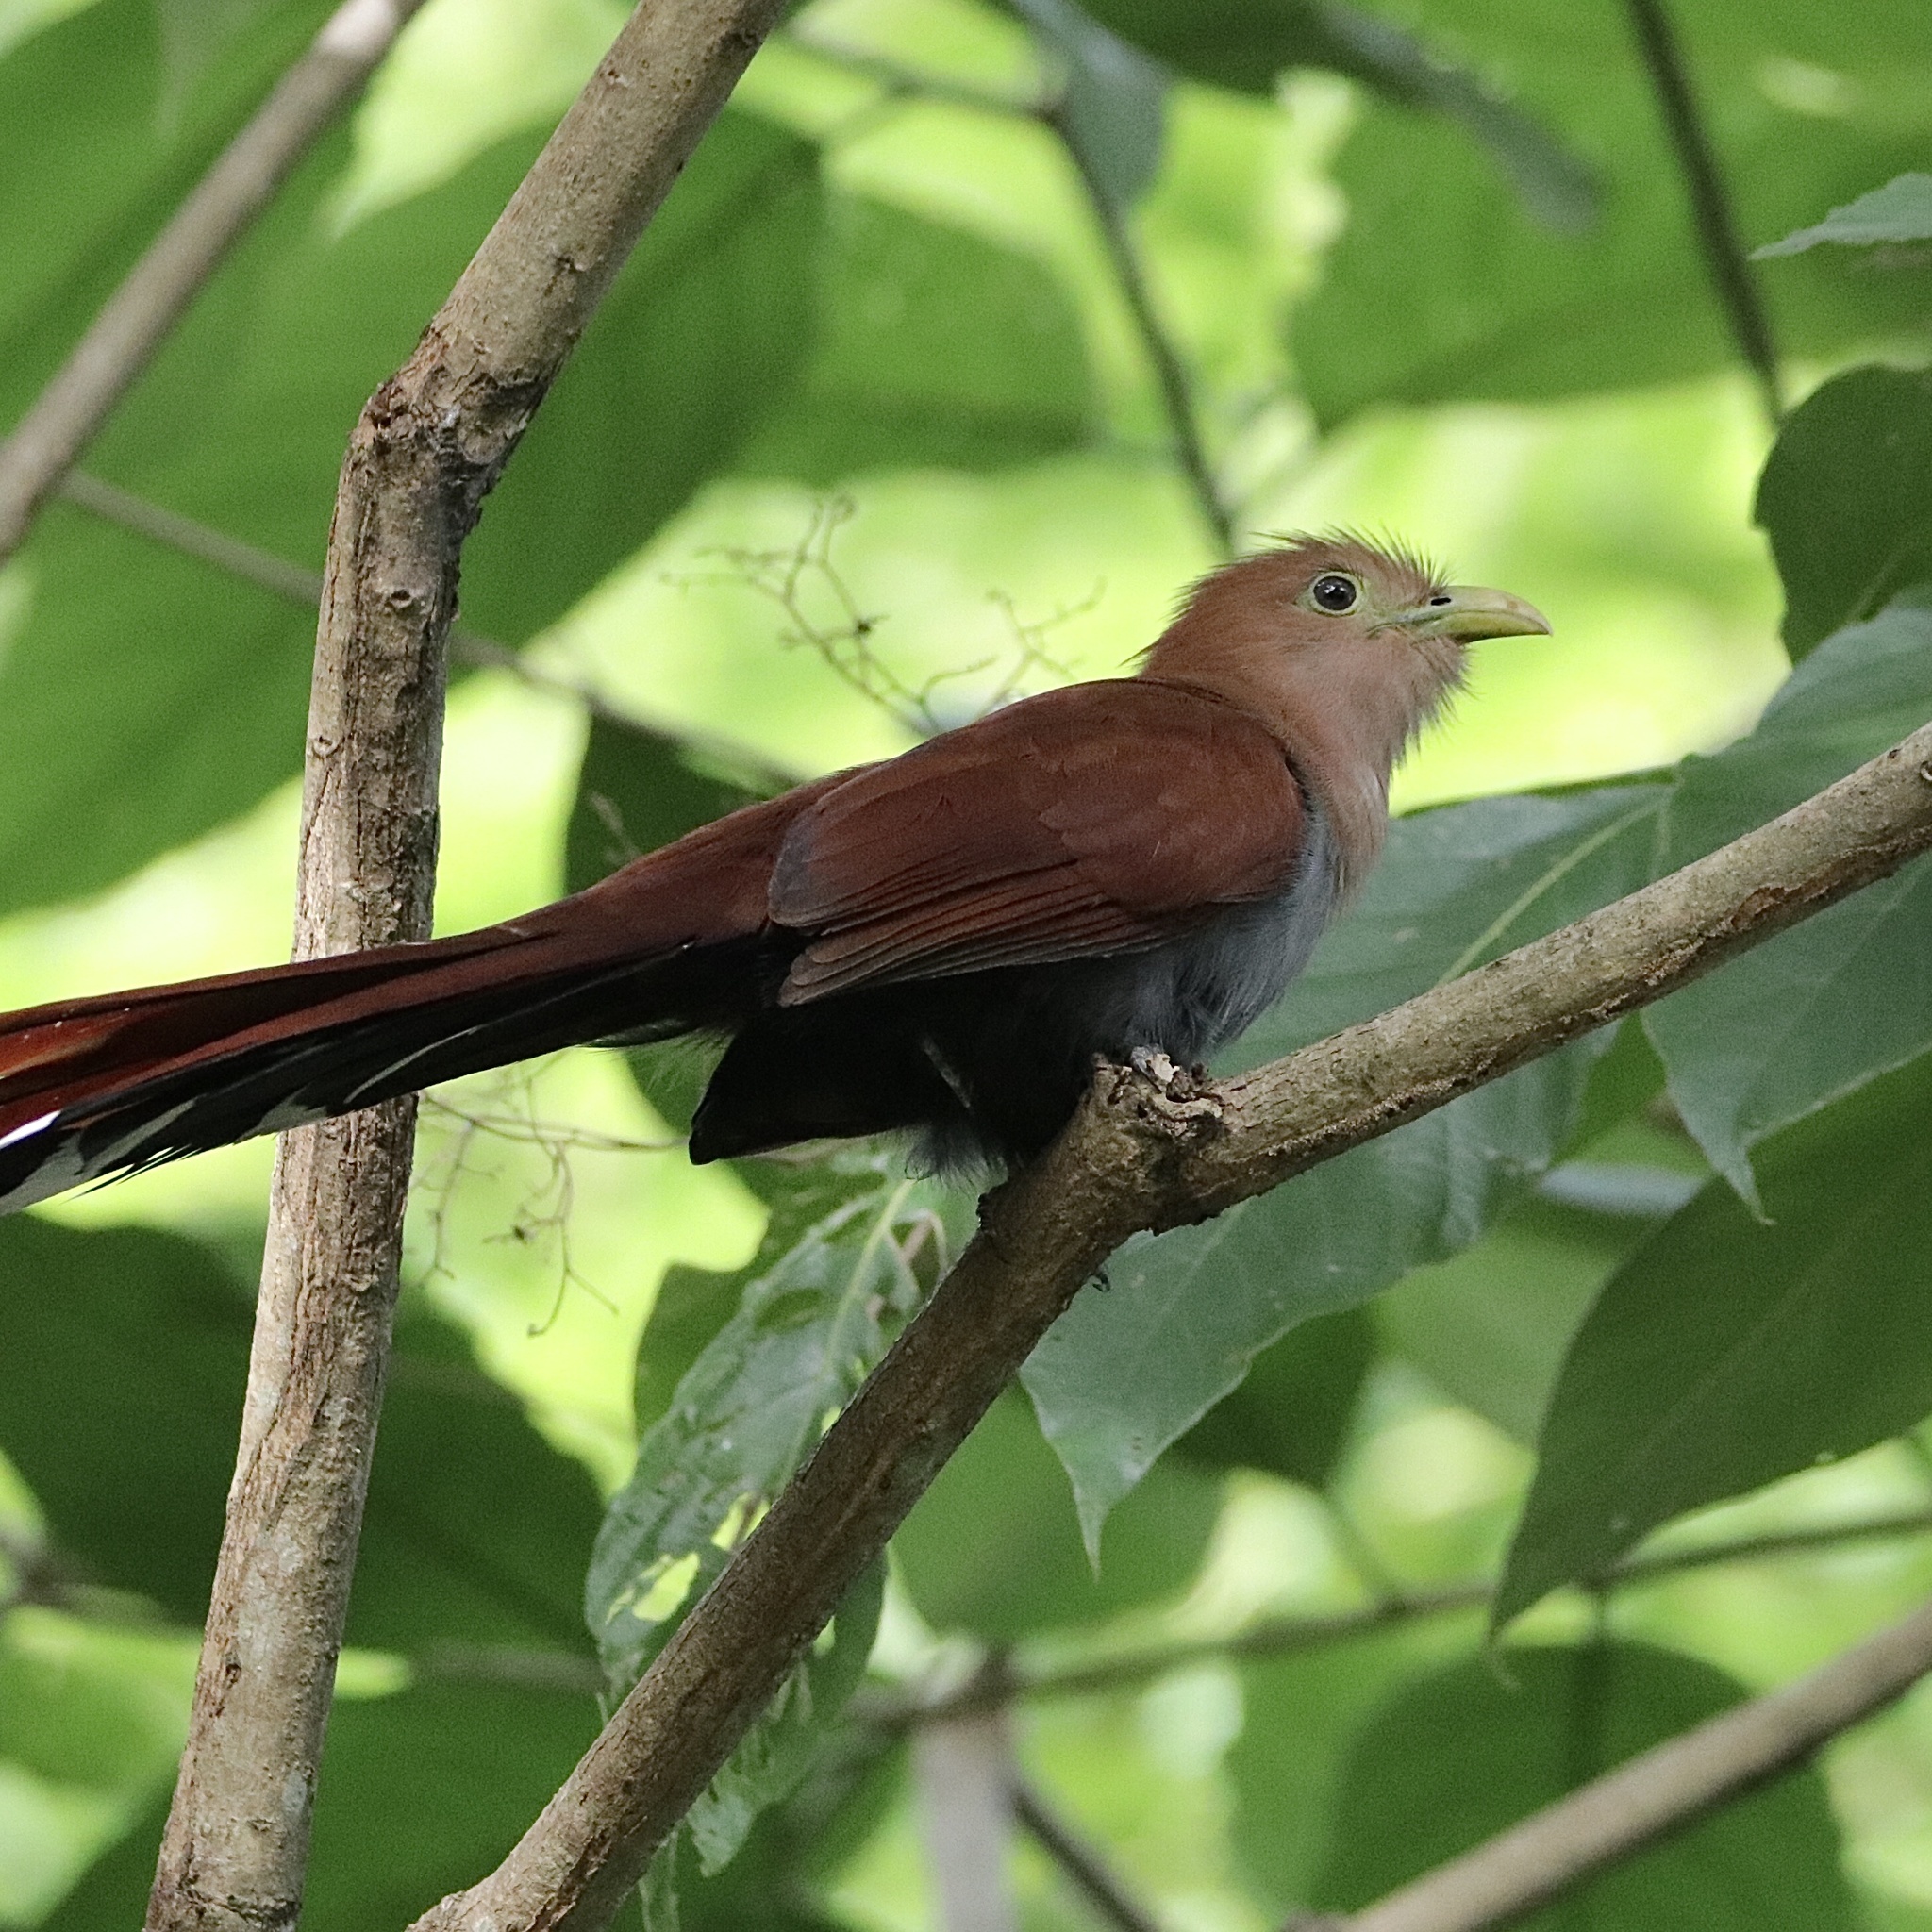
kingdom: Animalia
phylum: Chordata
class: Aves
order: Cuculiformes
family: Cuculidae
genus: Piaya
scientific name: Piaya cayana
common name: Squirrel cuckoo
